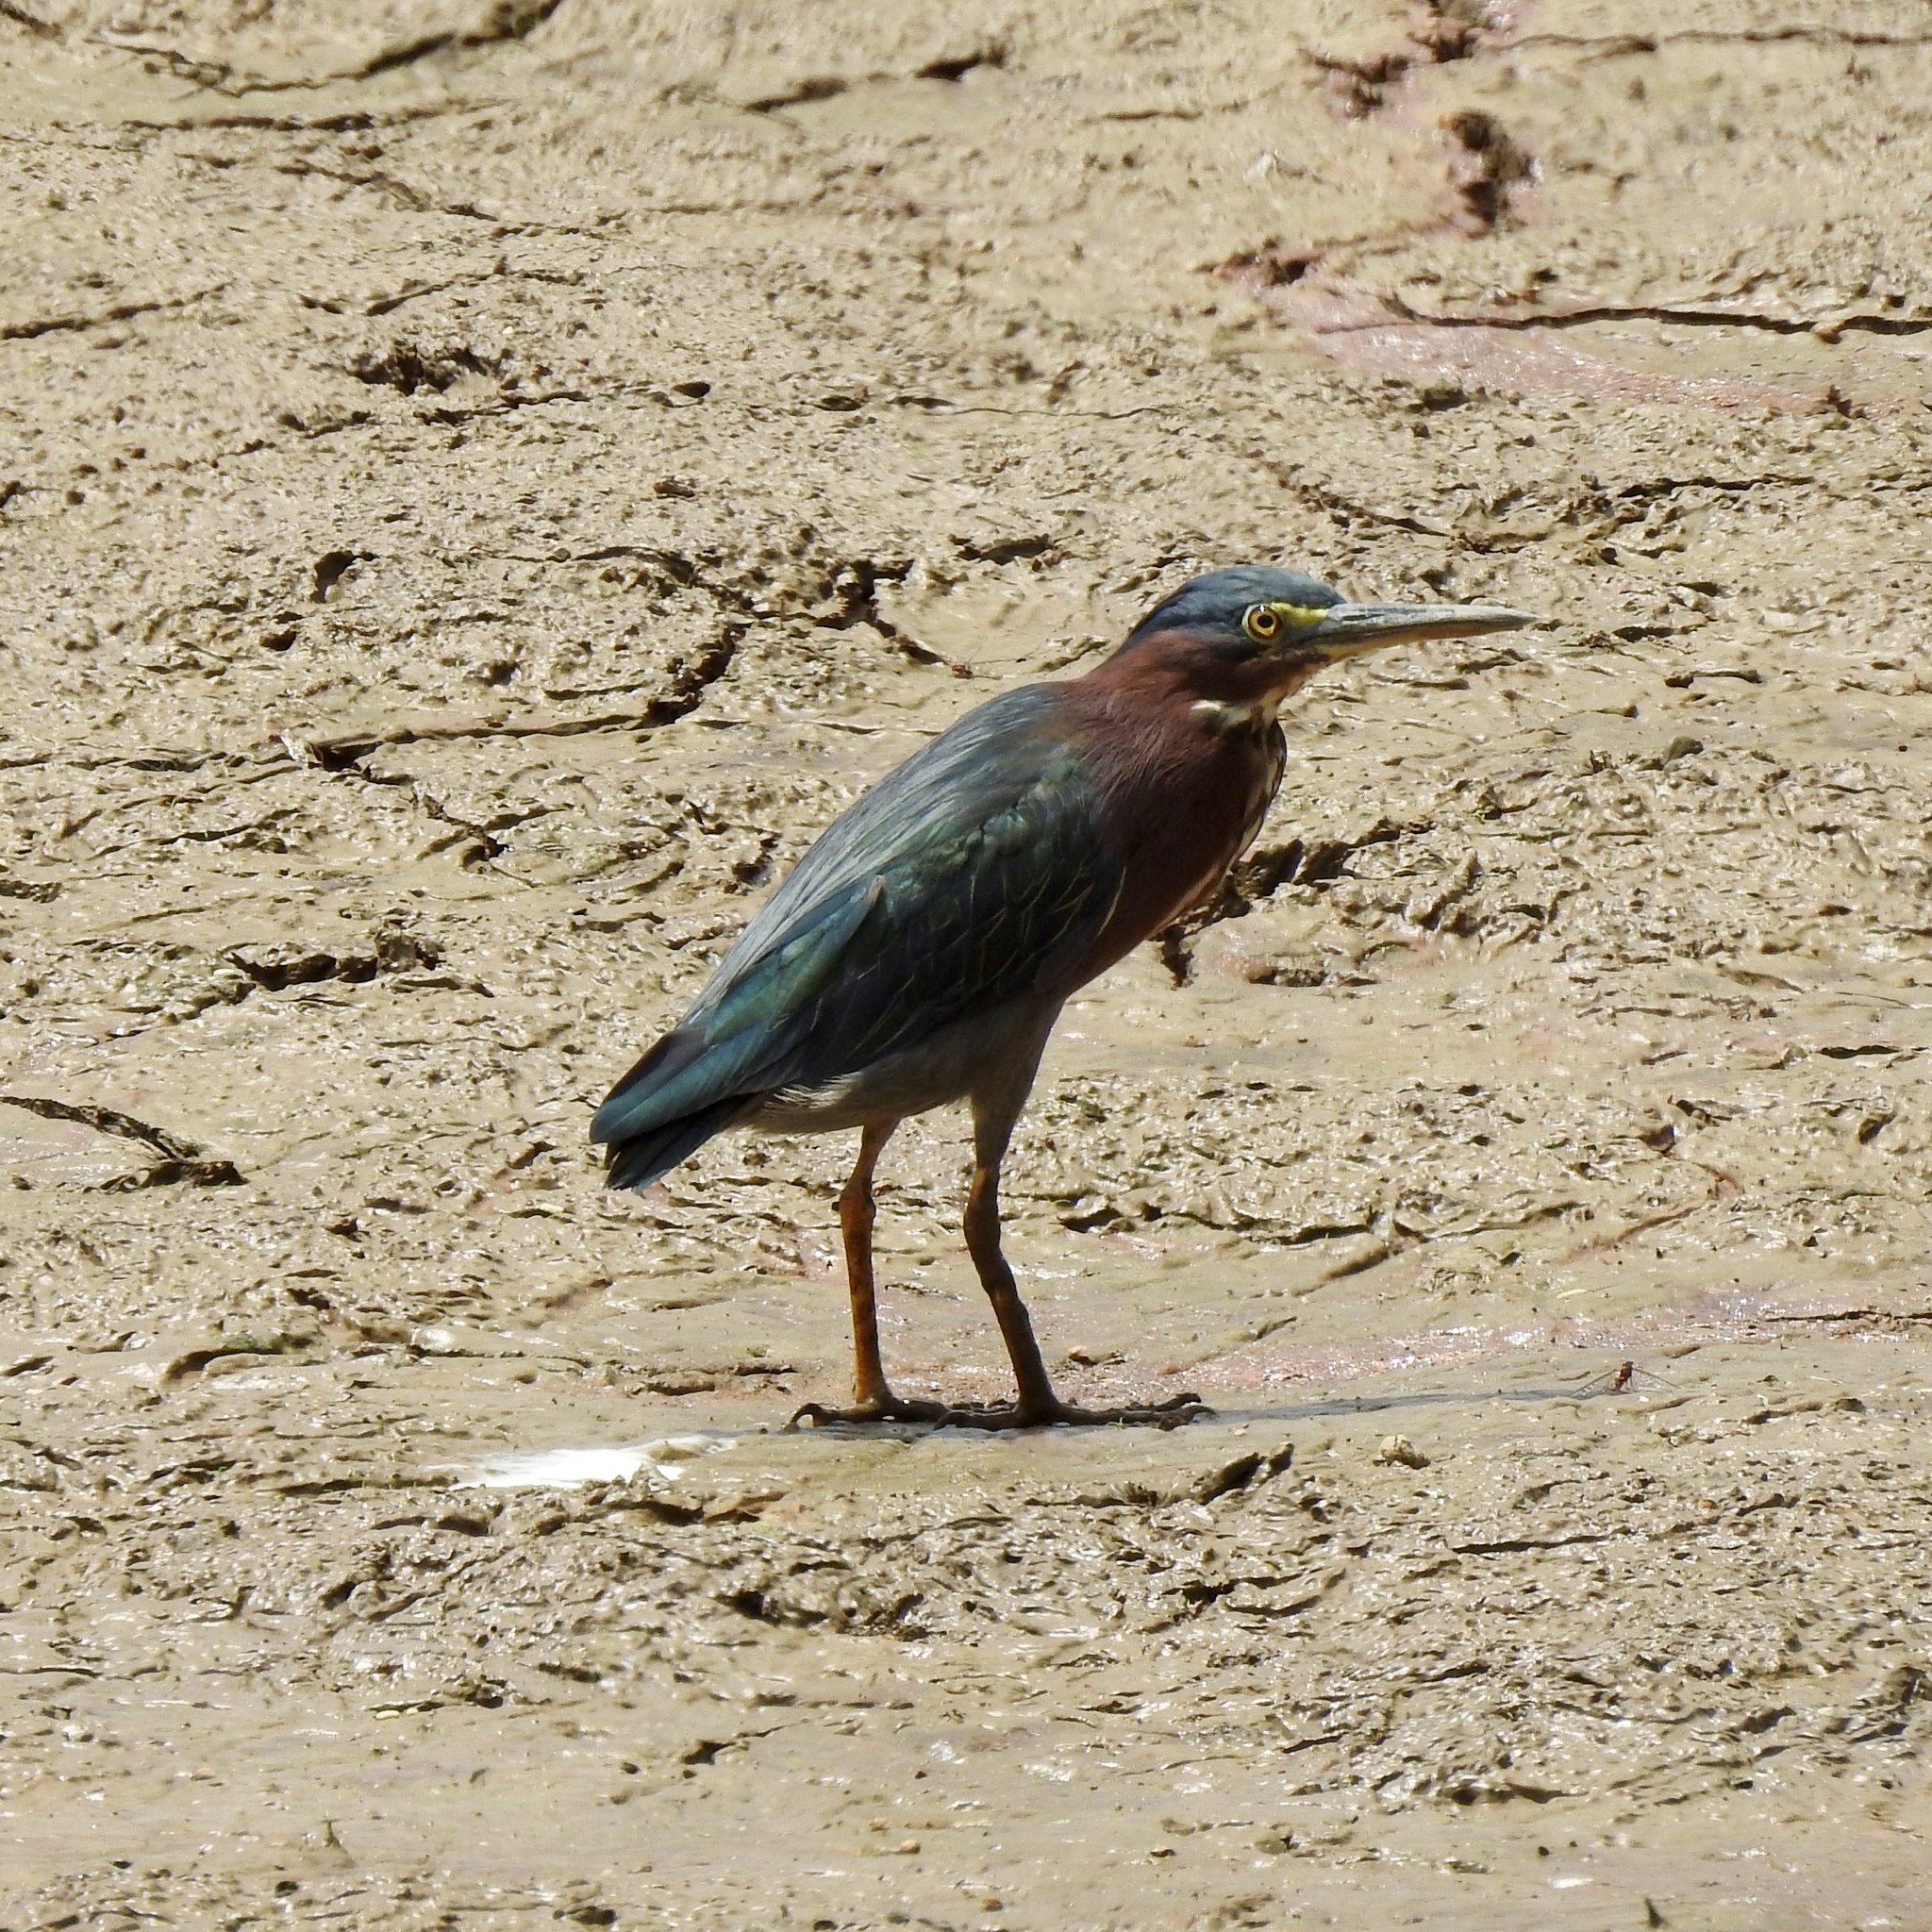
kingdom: Animalia
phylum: Chordata
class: Aves
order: Pelecaniformes
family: Ardeidae
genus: Butorides
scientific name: Butorides virescens
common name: Green heron
